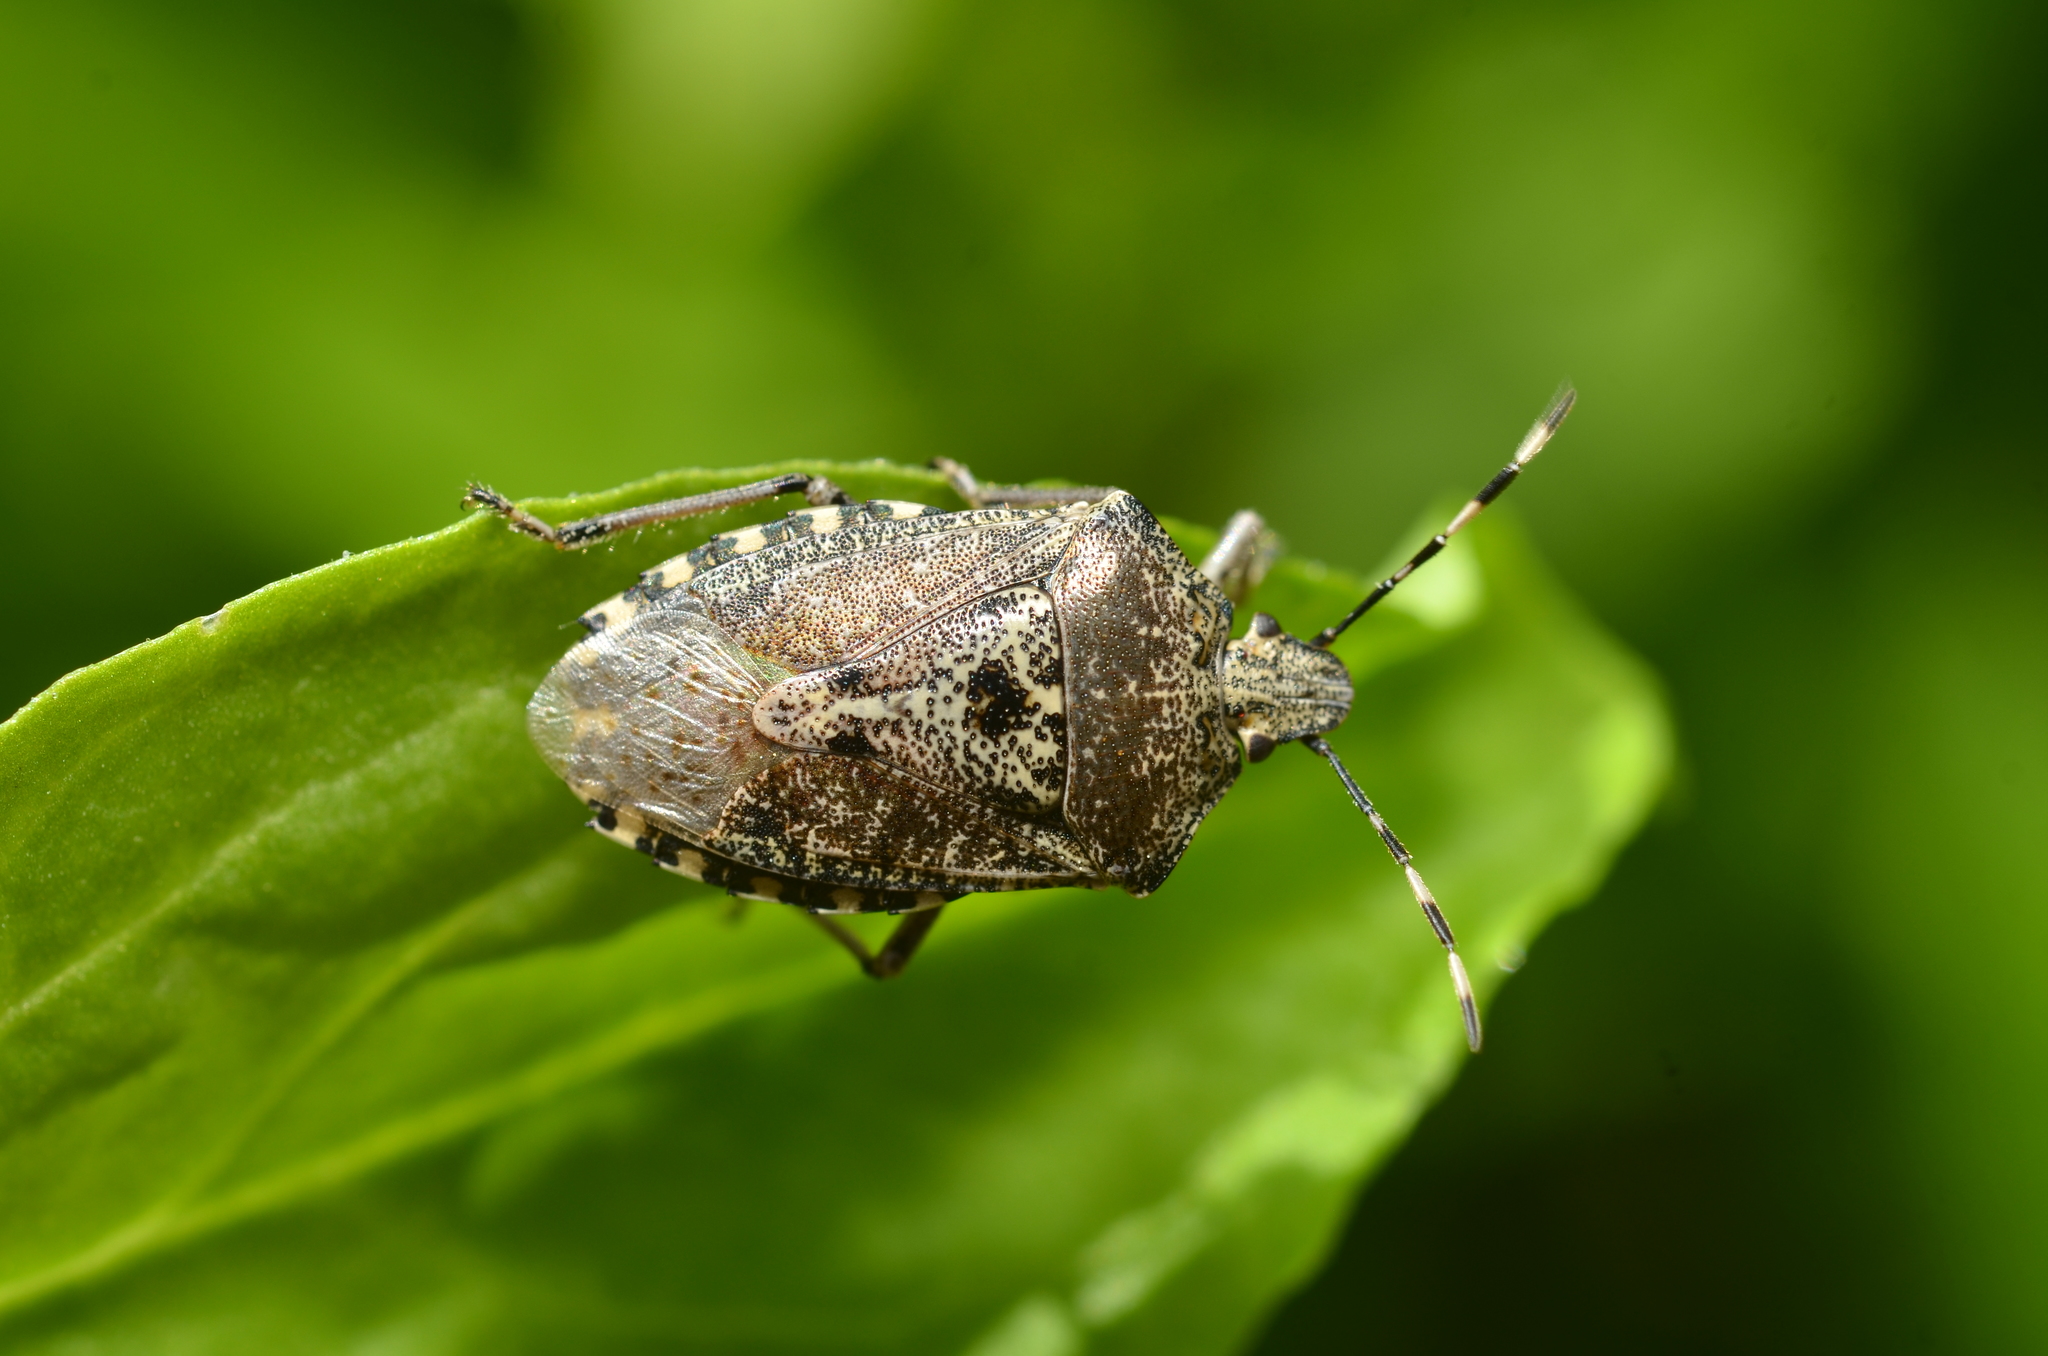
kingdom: Animalia
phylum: Arthropoda
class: Insecta
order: Hemiptera
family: Pentatomidae
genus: Rhaphigaster
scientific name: Rhaphigaster nebulosa
